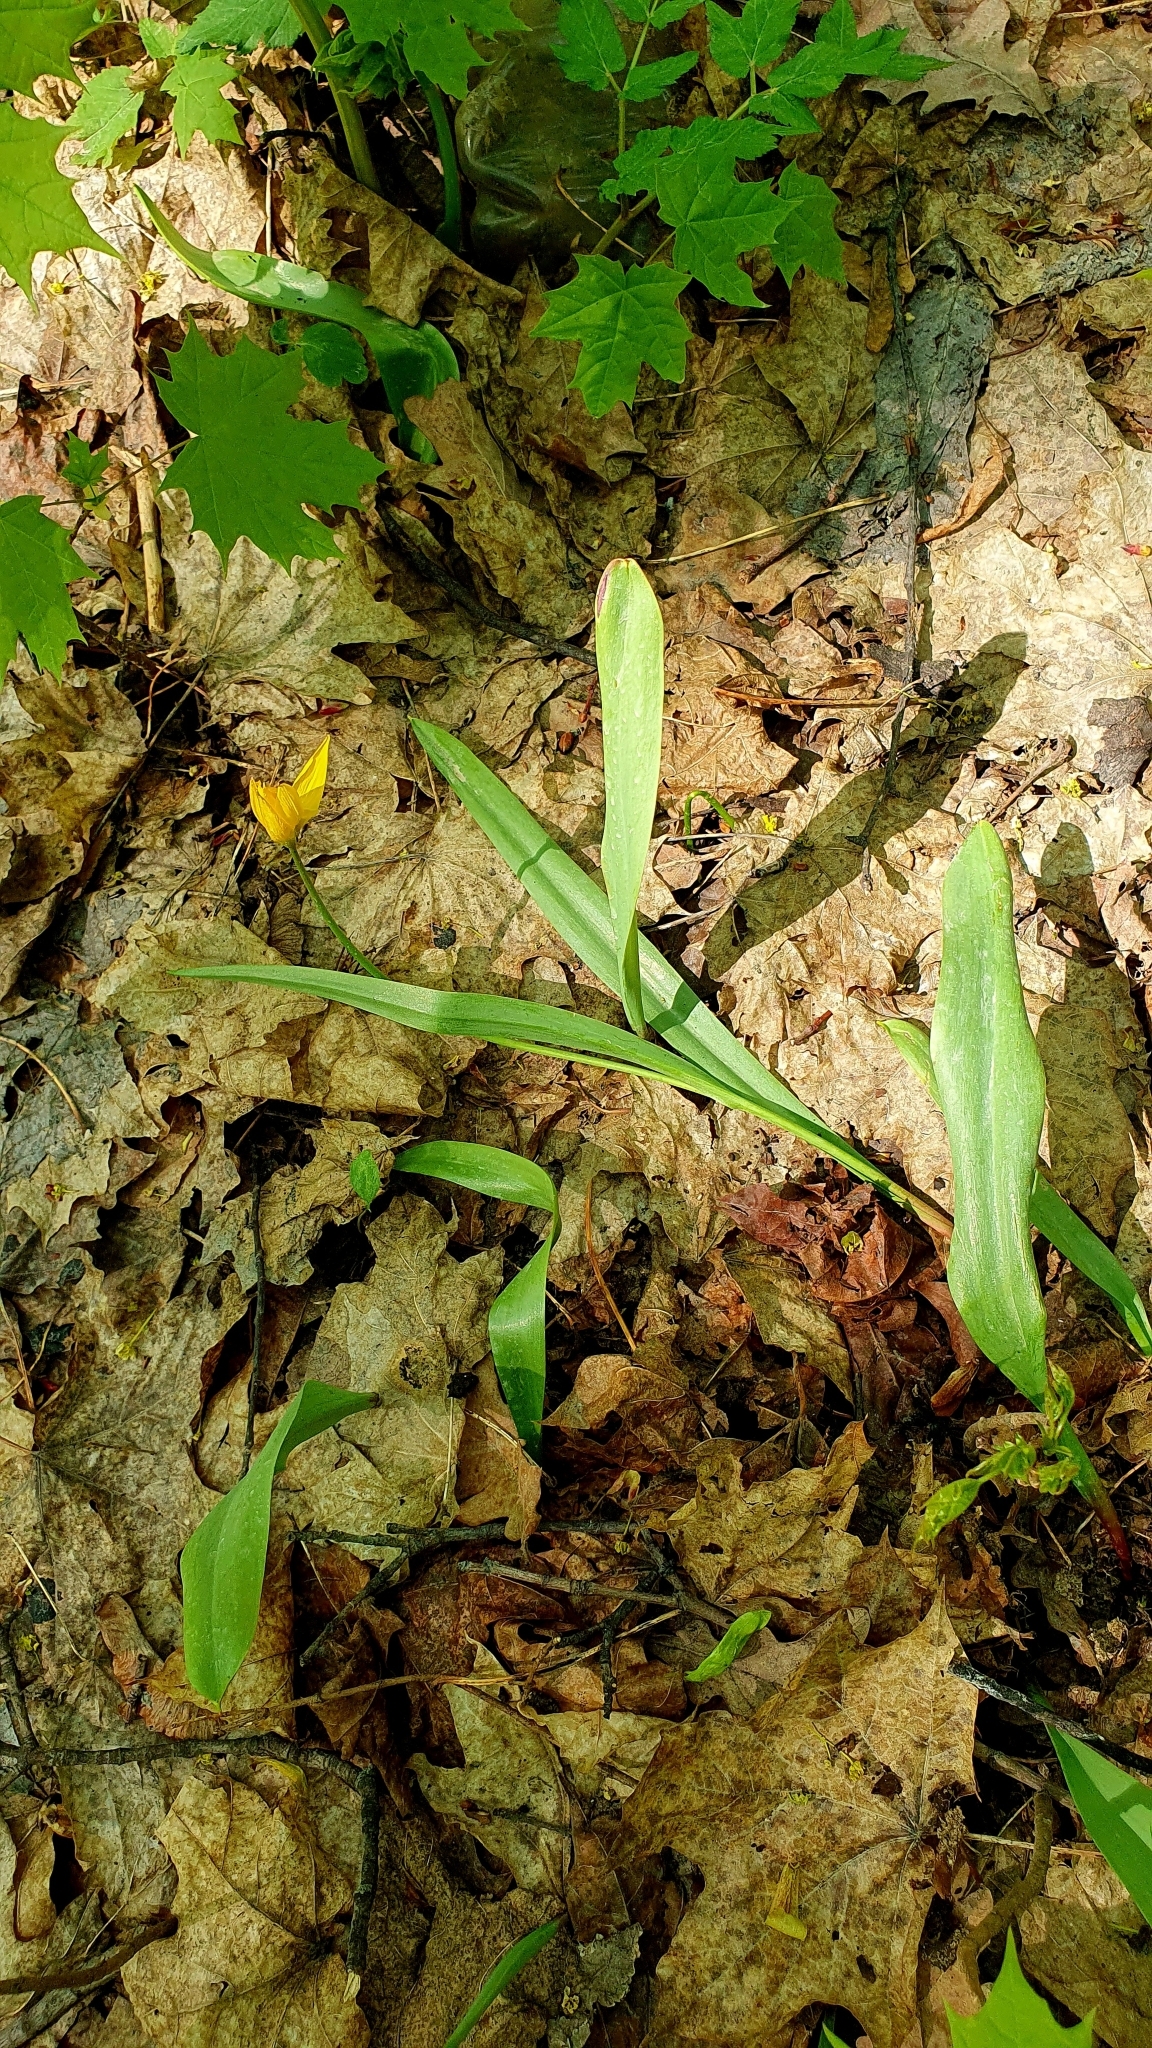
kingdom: Plantae
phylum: Tracheophyta
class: Liliopsida
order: Liliales
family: Liliaceae
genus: Tulipa
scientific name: Tulipa sylvestris
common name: Wild tulip
